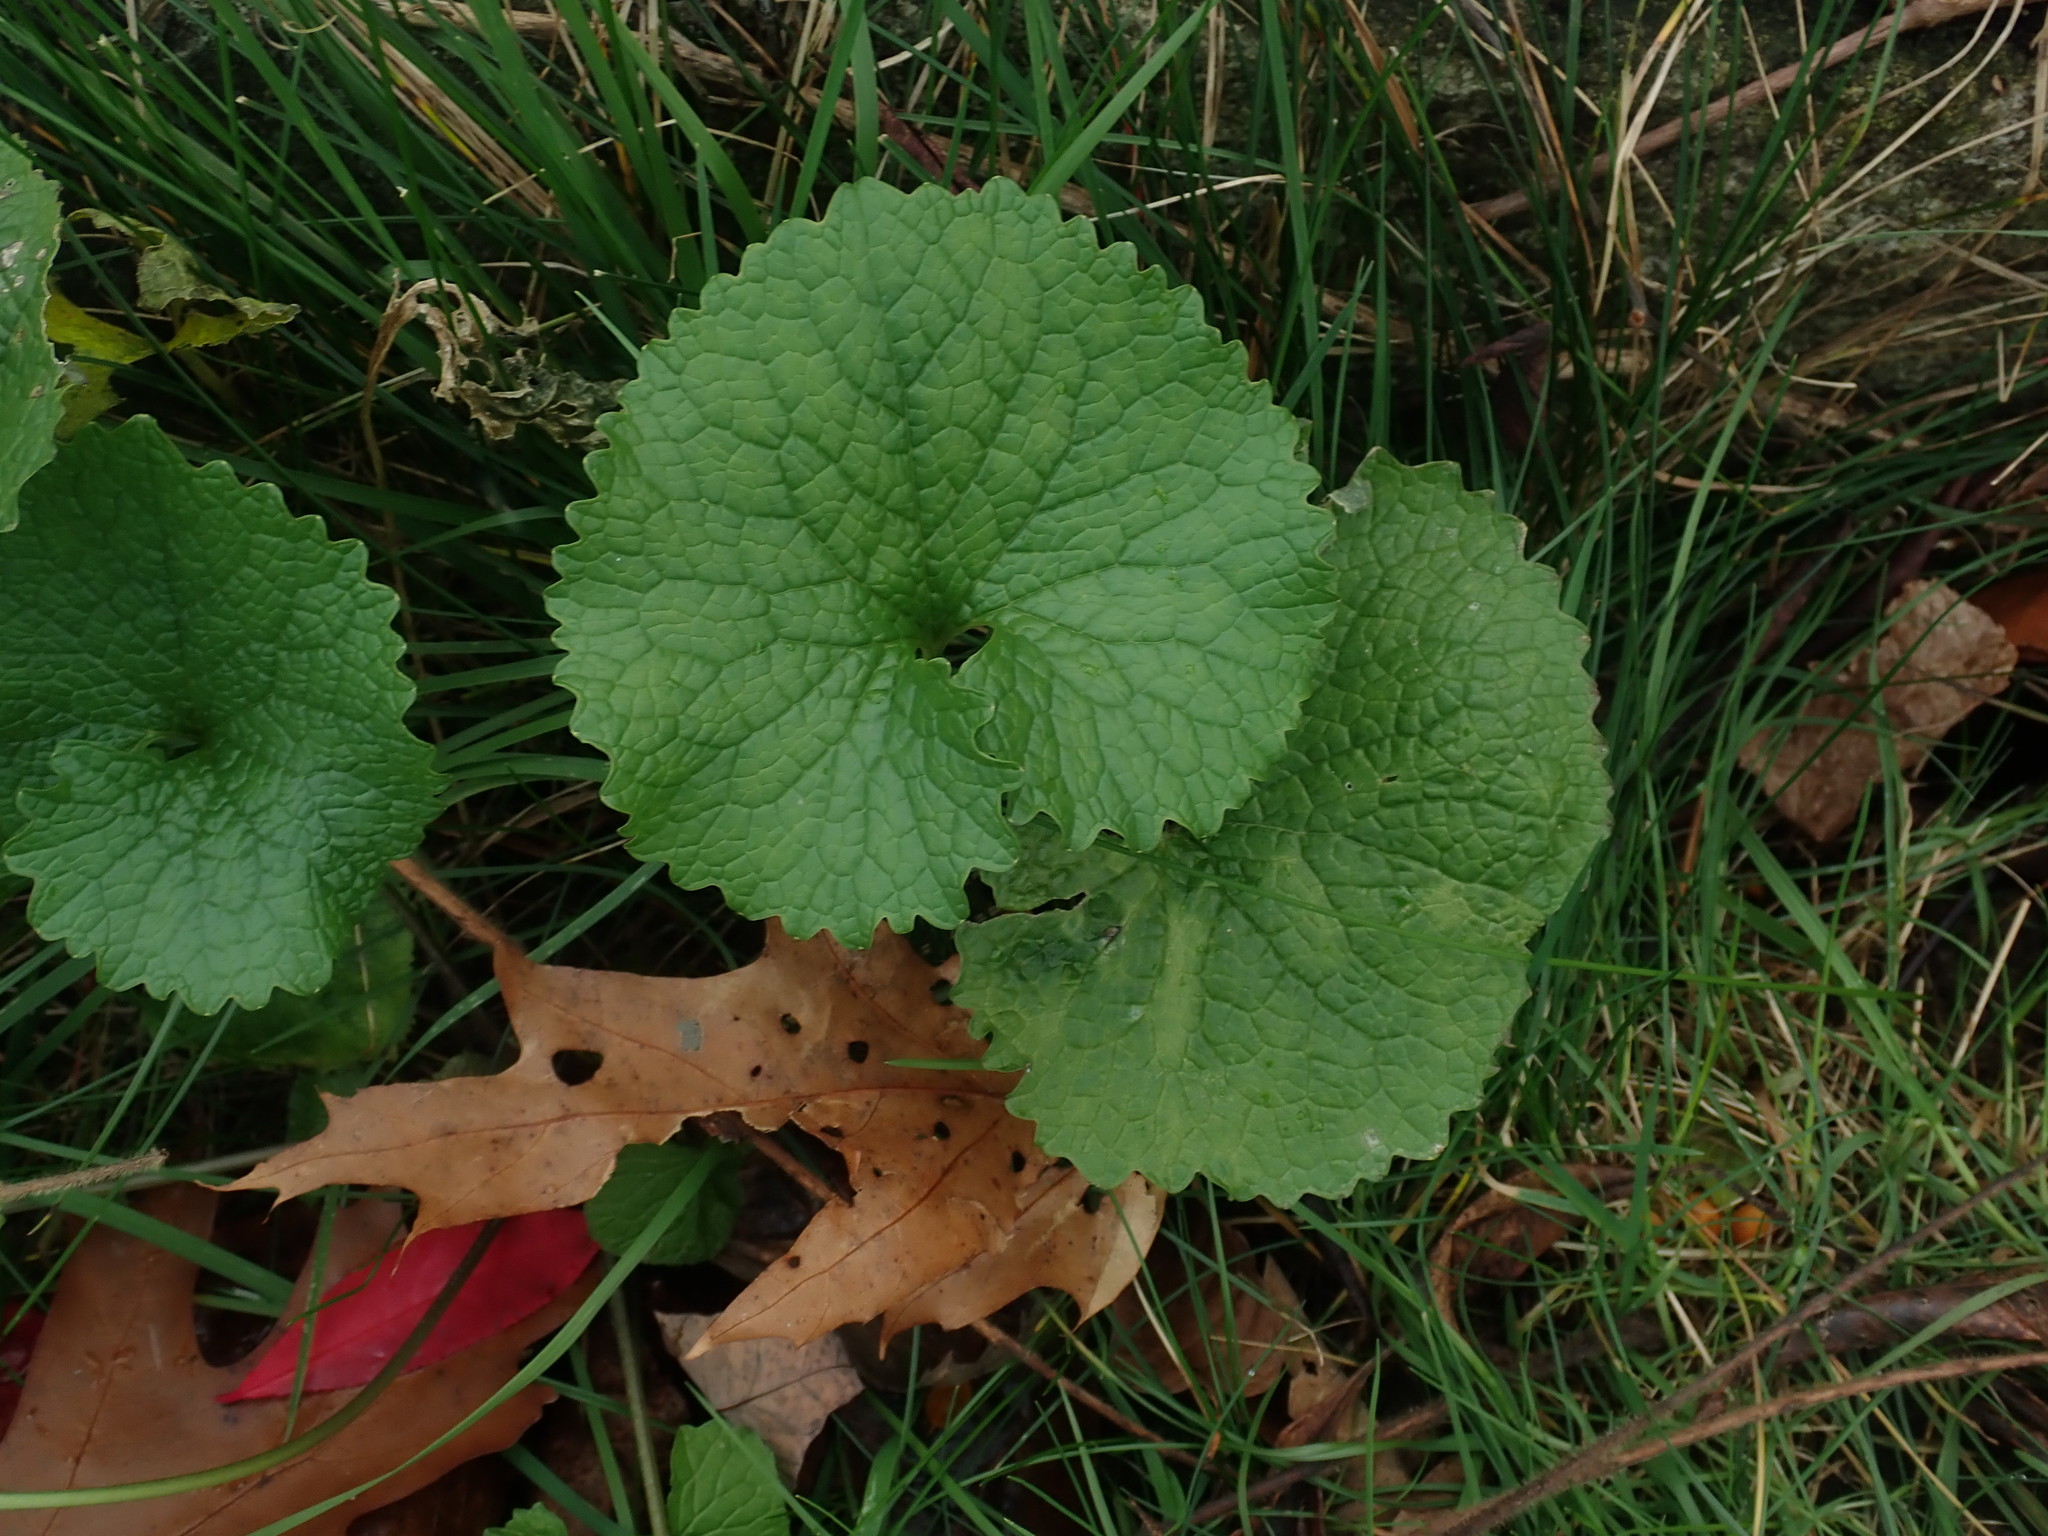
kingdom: Plantae
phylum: Tracheophyta
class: Magnoliopsida
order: Brassicales
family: Brassicaceae
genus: Alliaria
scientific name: Alliaria petiolata
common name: Garlic mustard
